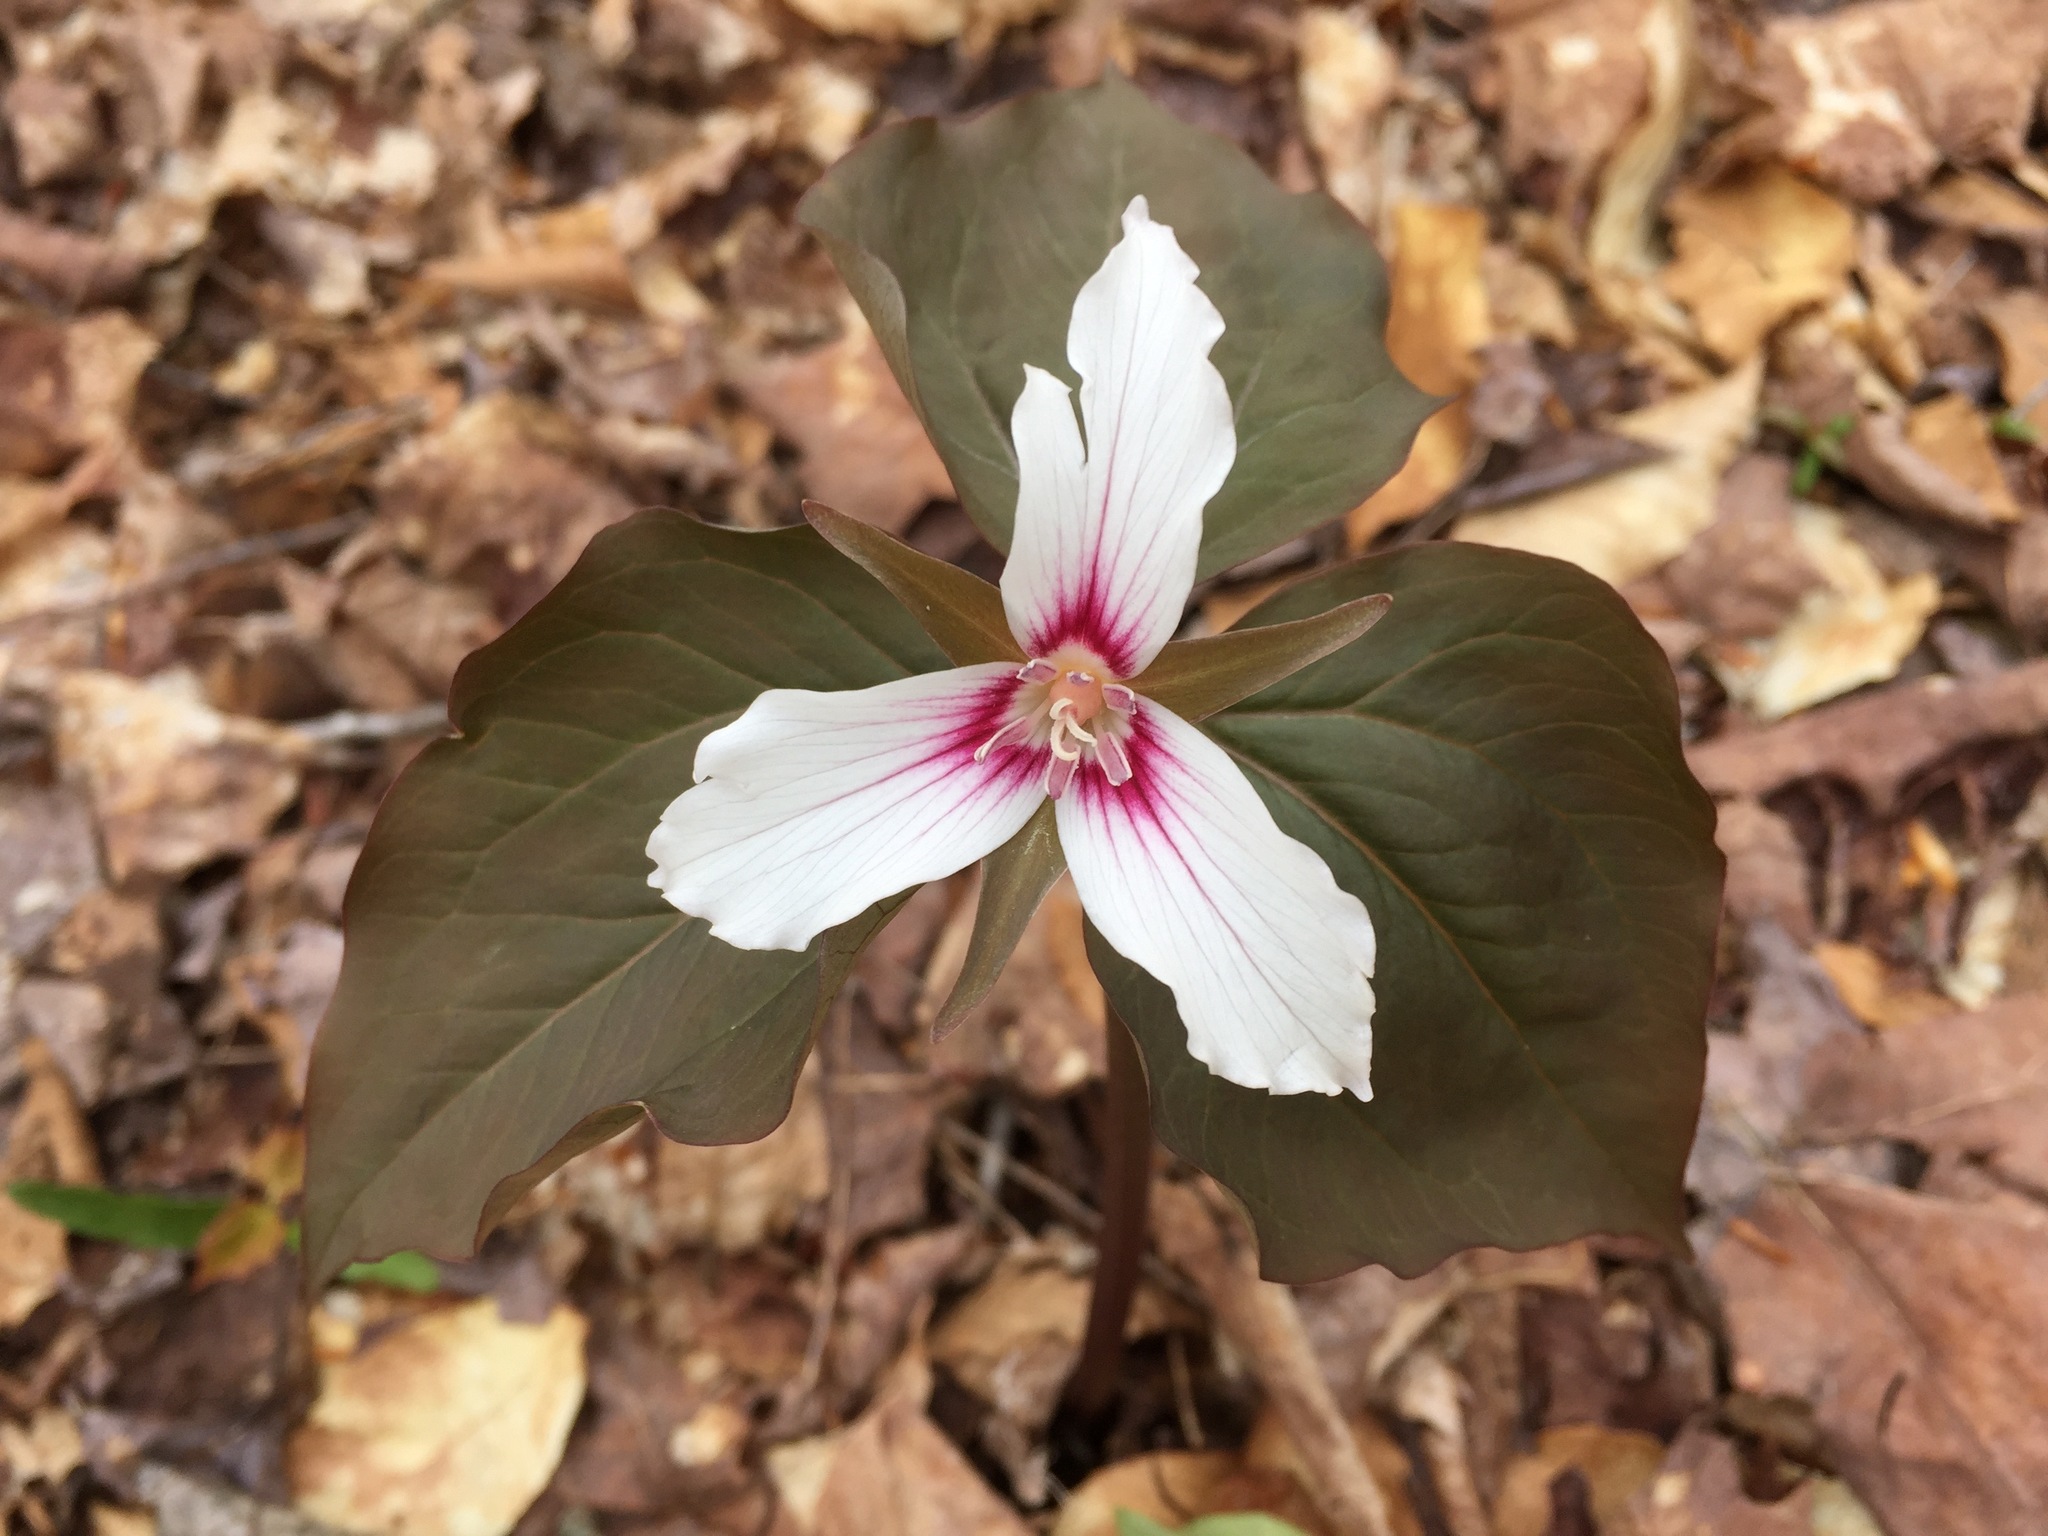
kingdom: Plantae
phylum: Tracheophyta
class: Liliopsida
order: Liliales
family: Melanthiaceae
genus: Trillium
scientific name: Trillium undulatum
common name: Paint trillium
